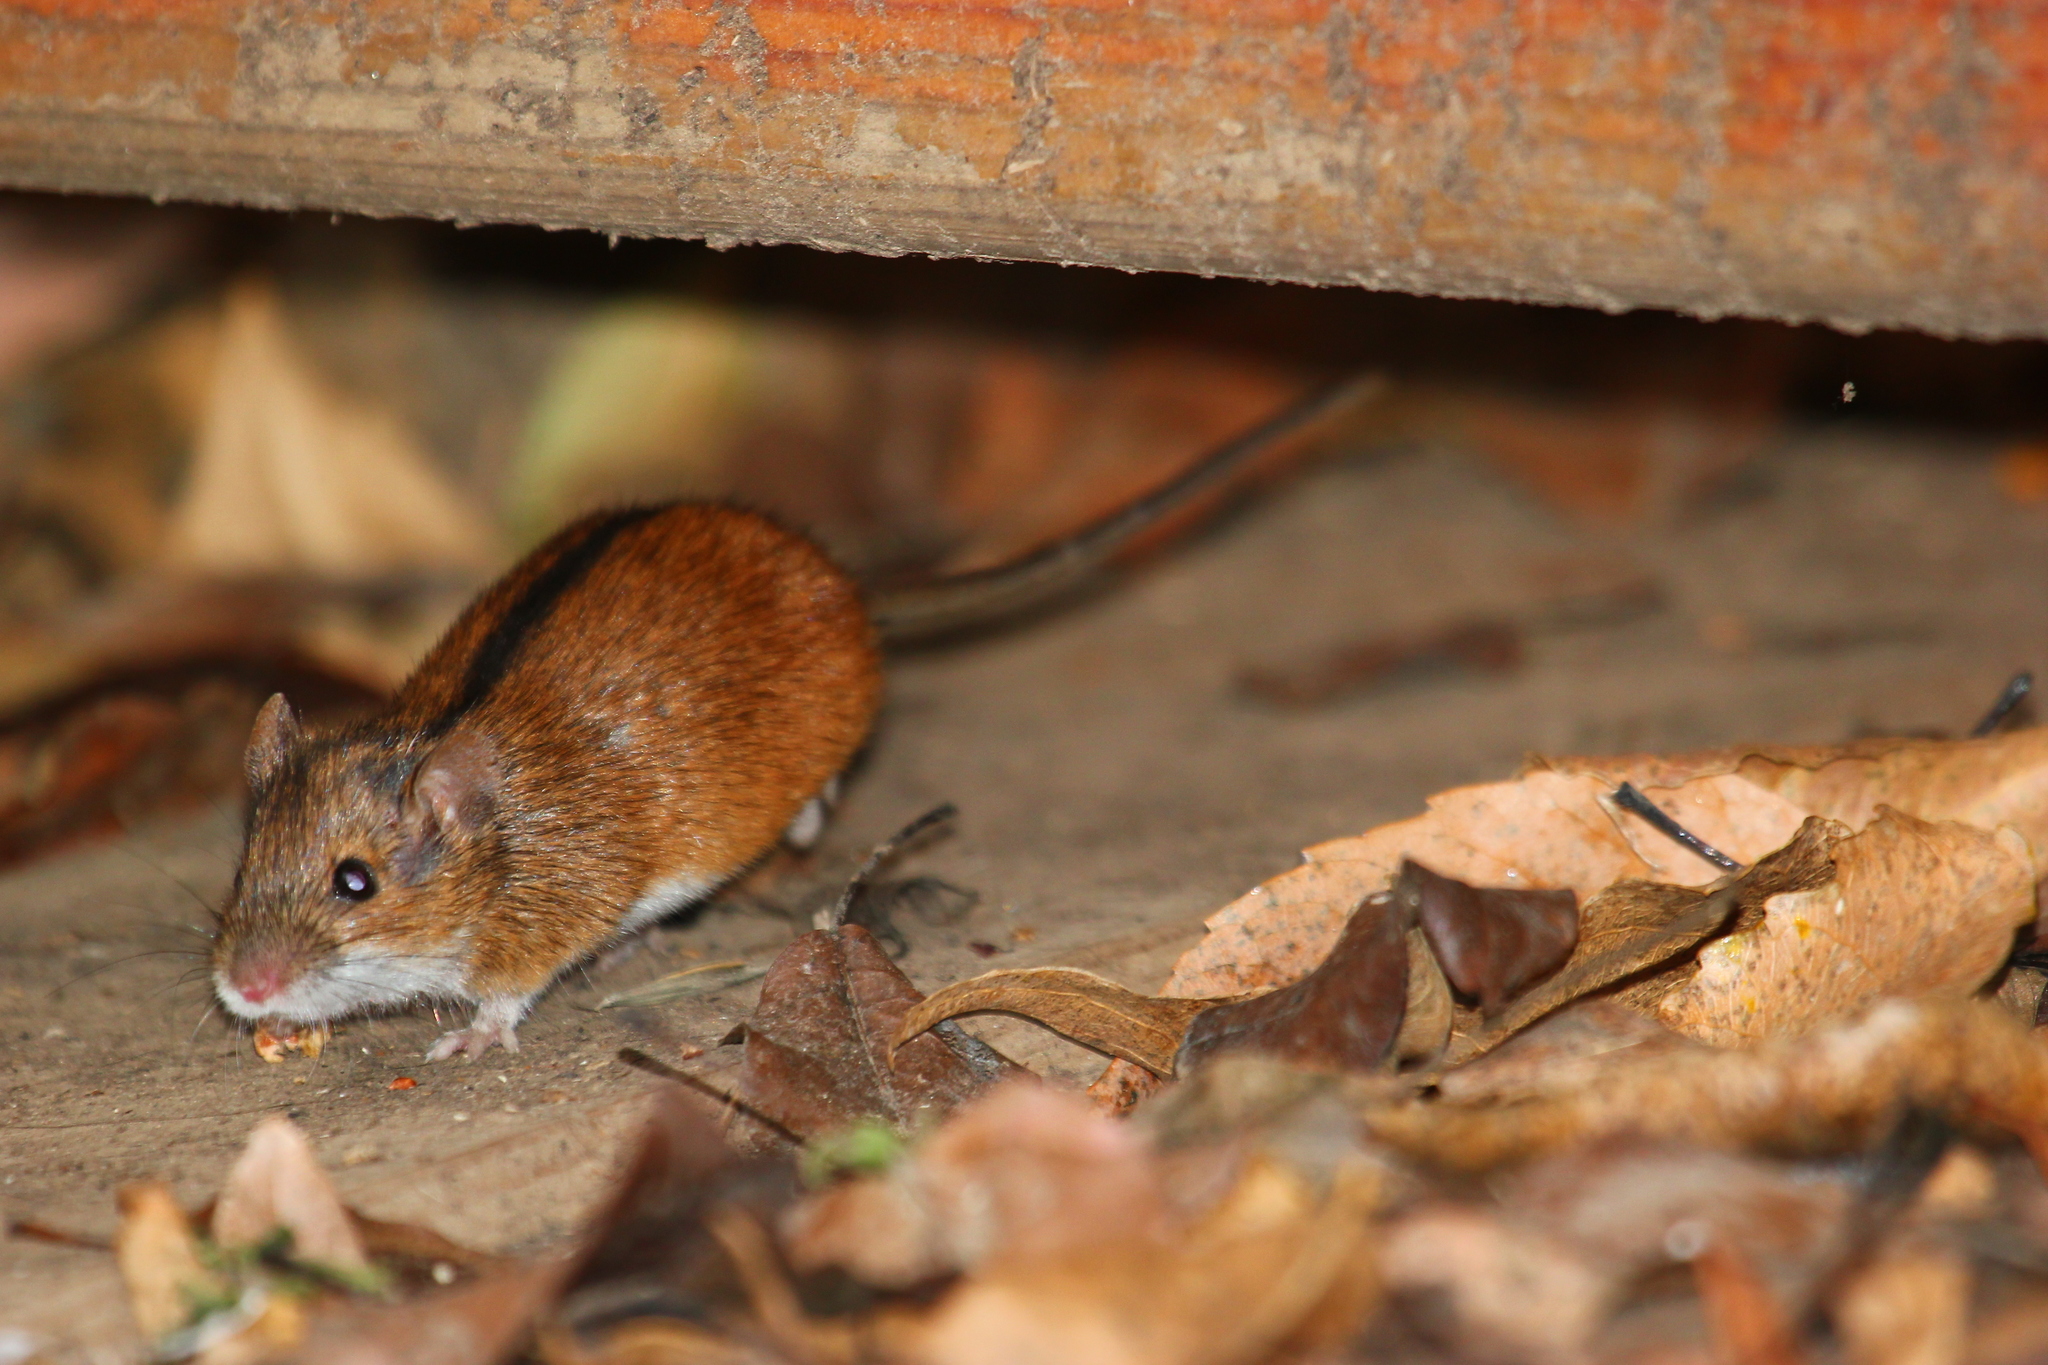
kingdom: Animalia
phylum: Chordata
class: Mammalia
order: Rodentia
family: Muridae
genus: Apodemus
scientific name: Apodemus agrarius
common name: Striped field mouse
